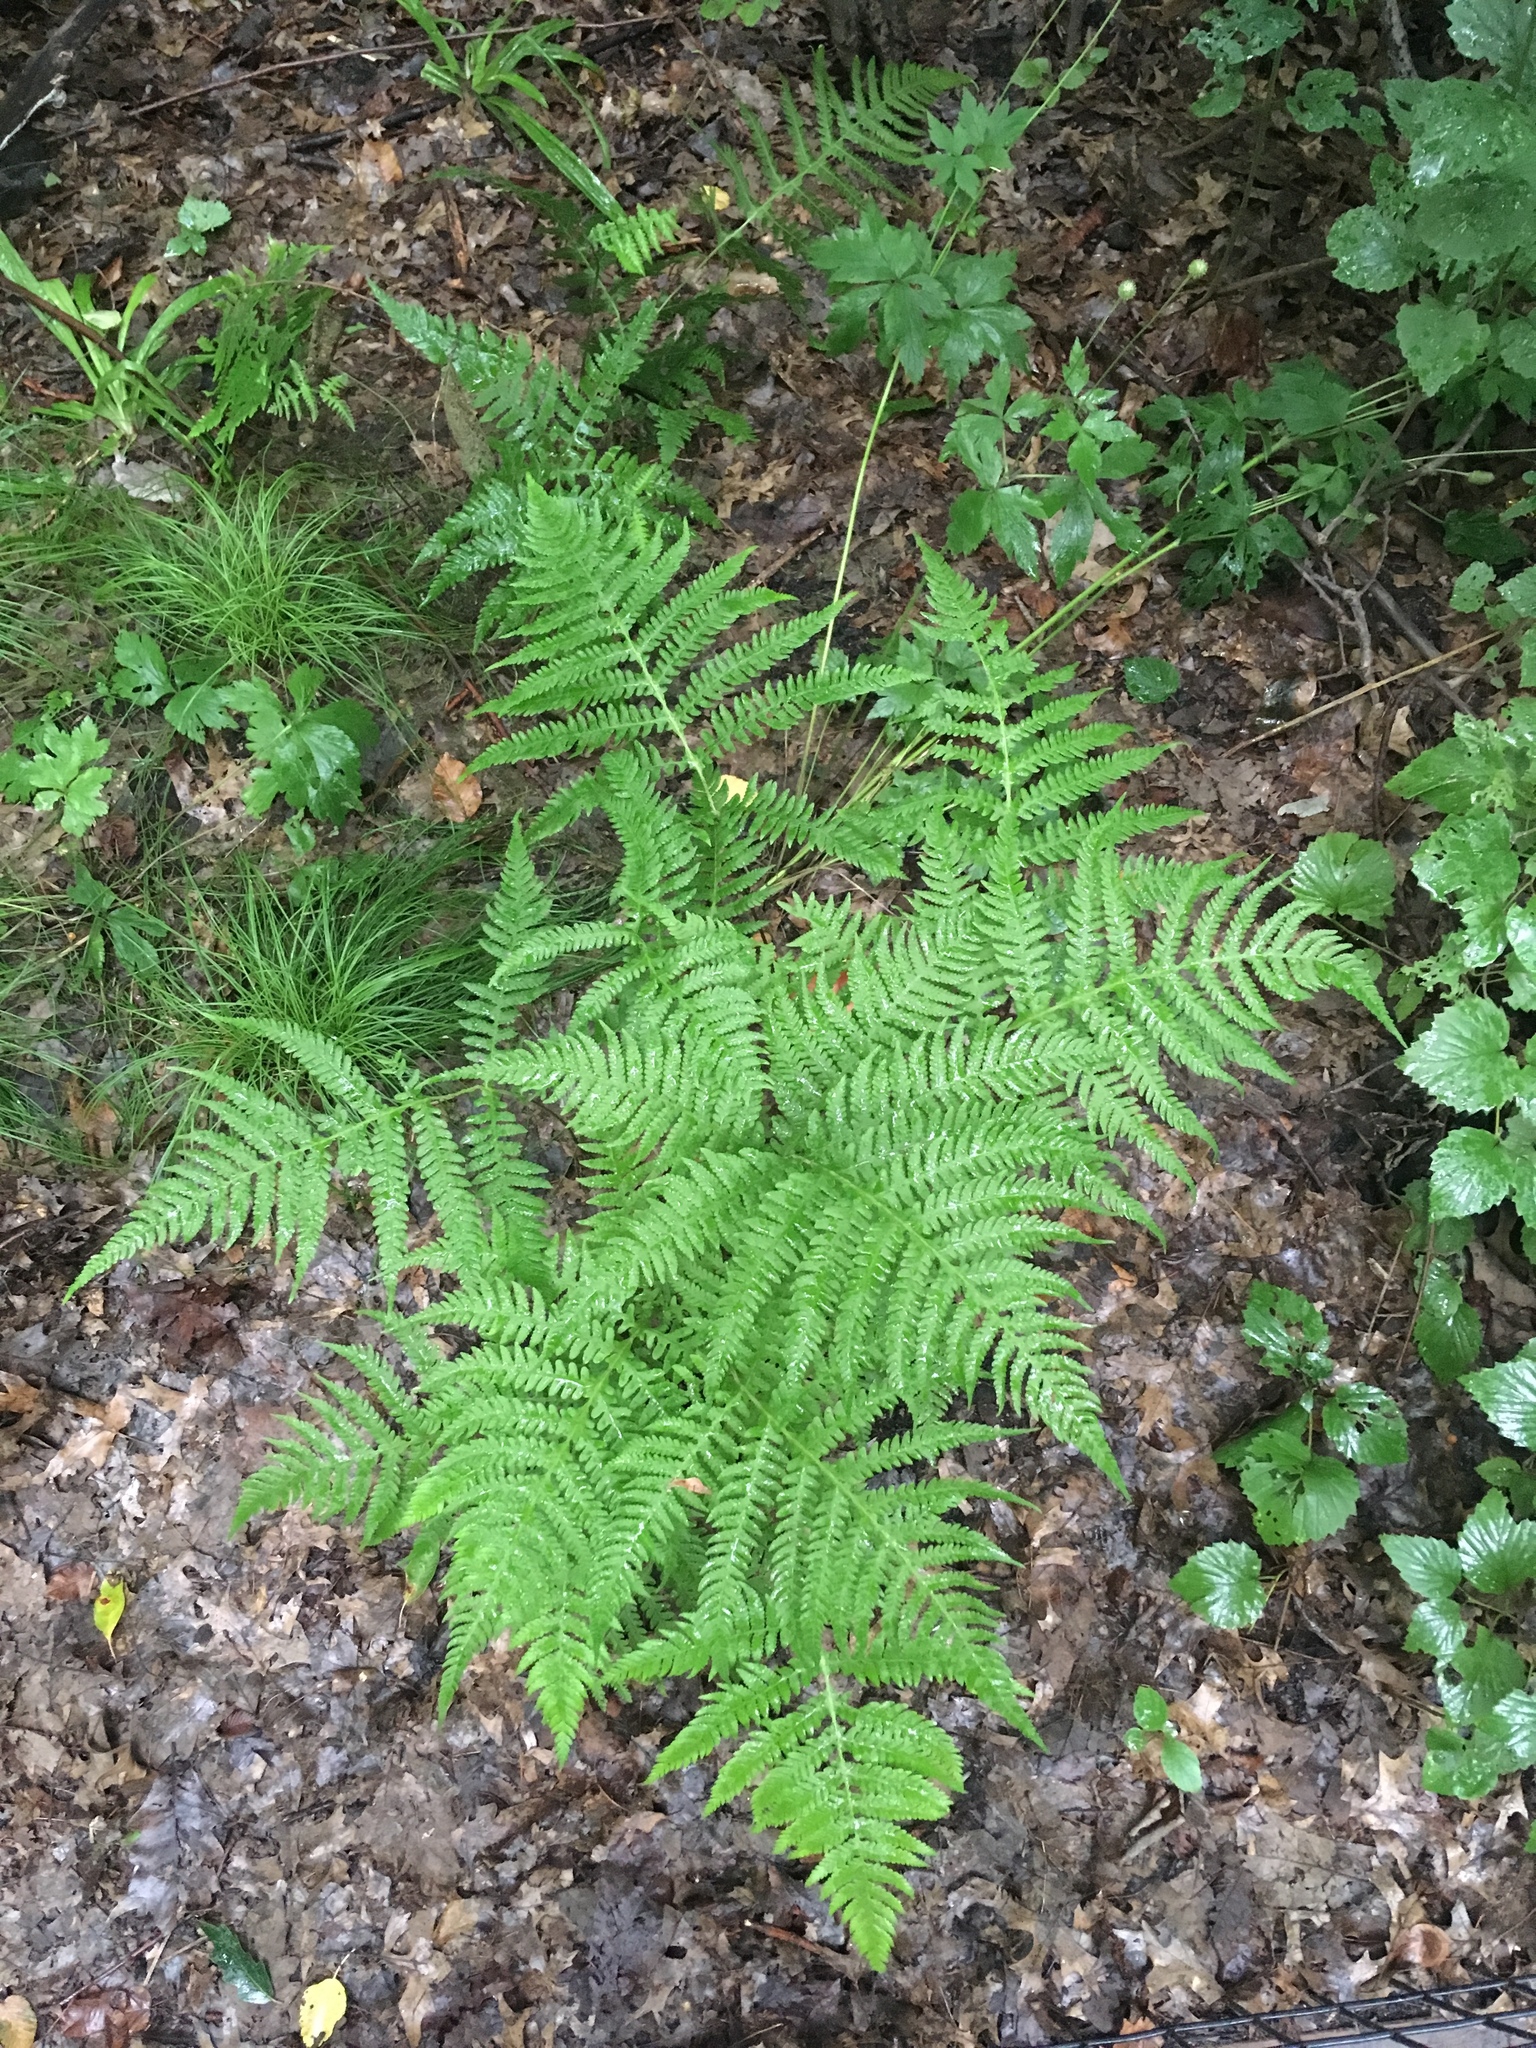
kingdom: Plantae
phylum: Tracheophyta
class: Polypodiopsida
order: Polypodiales
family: Thelypteridaceae
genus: Phegopteris
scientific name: Phegopteris hexagonoptera
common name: Broad beech fern
